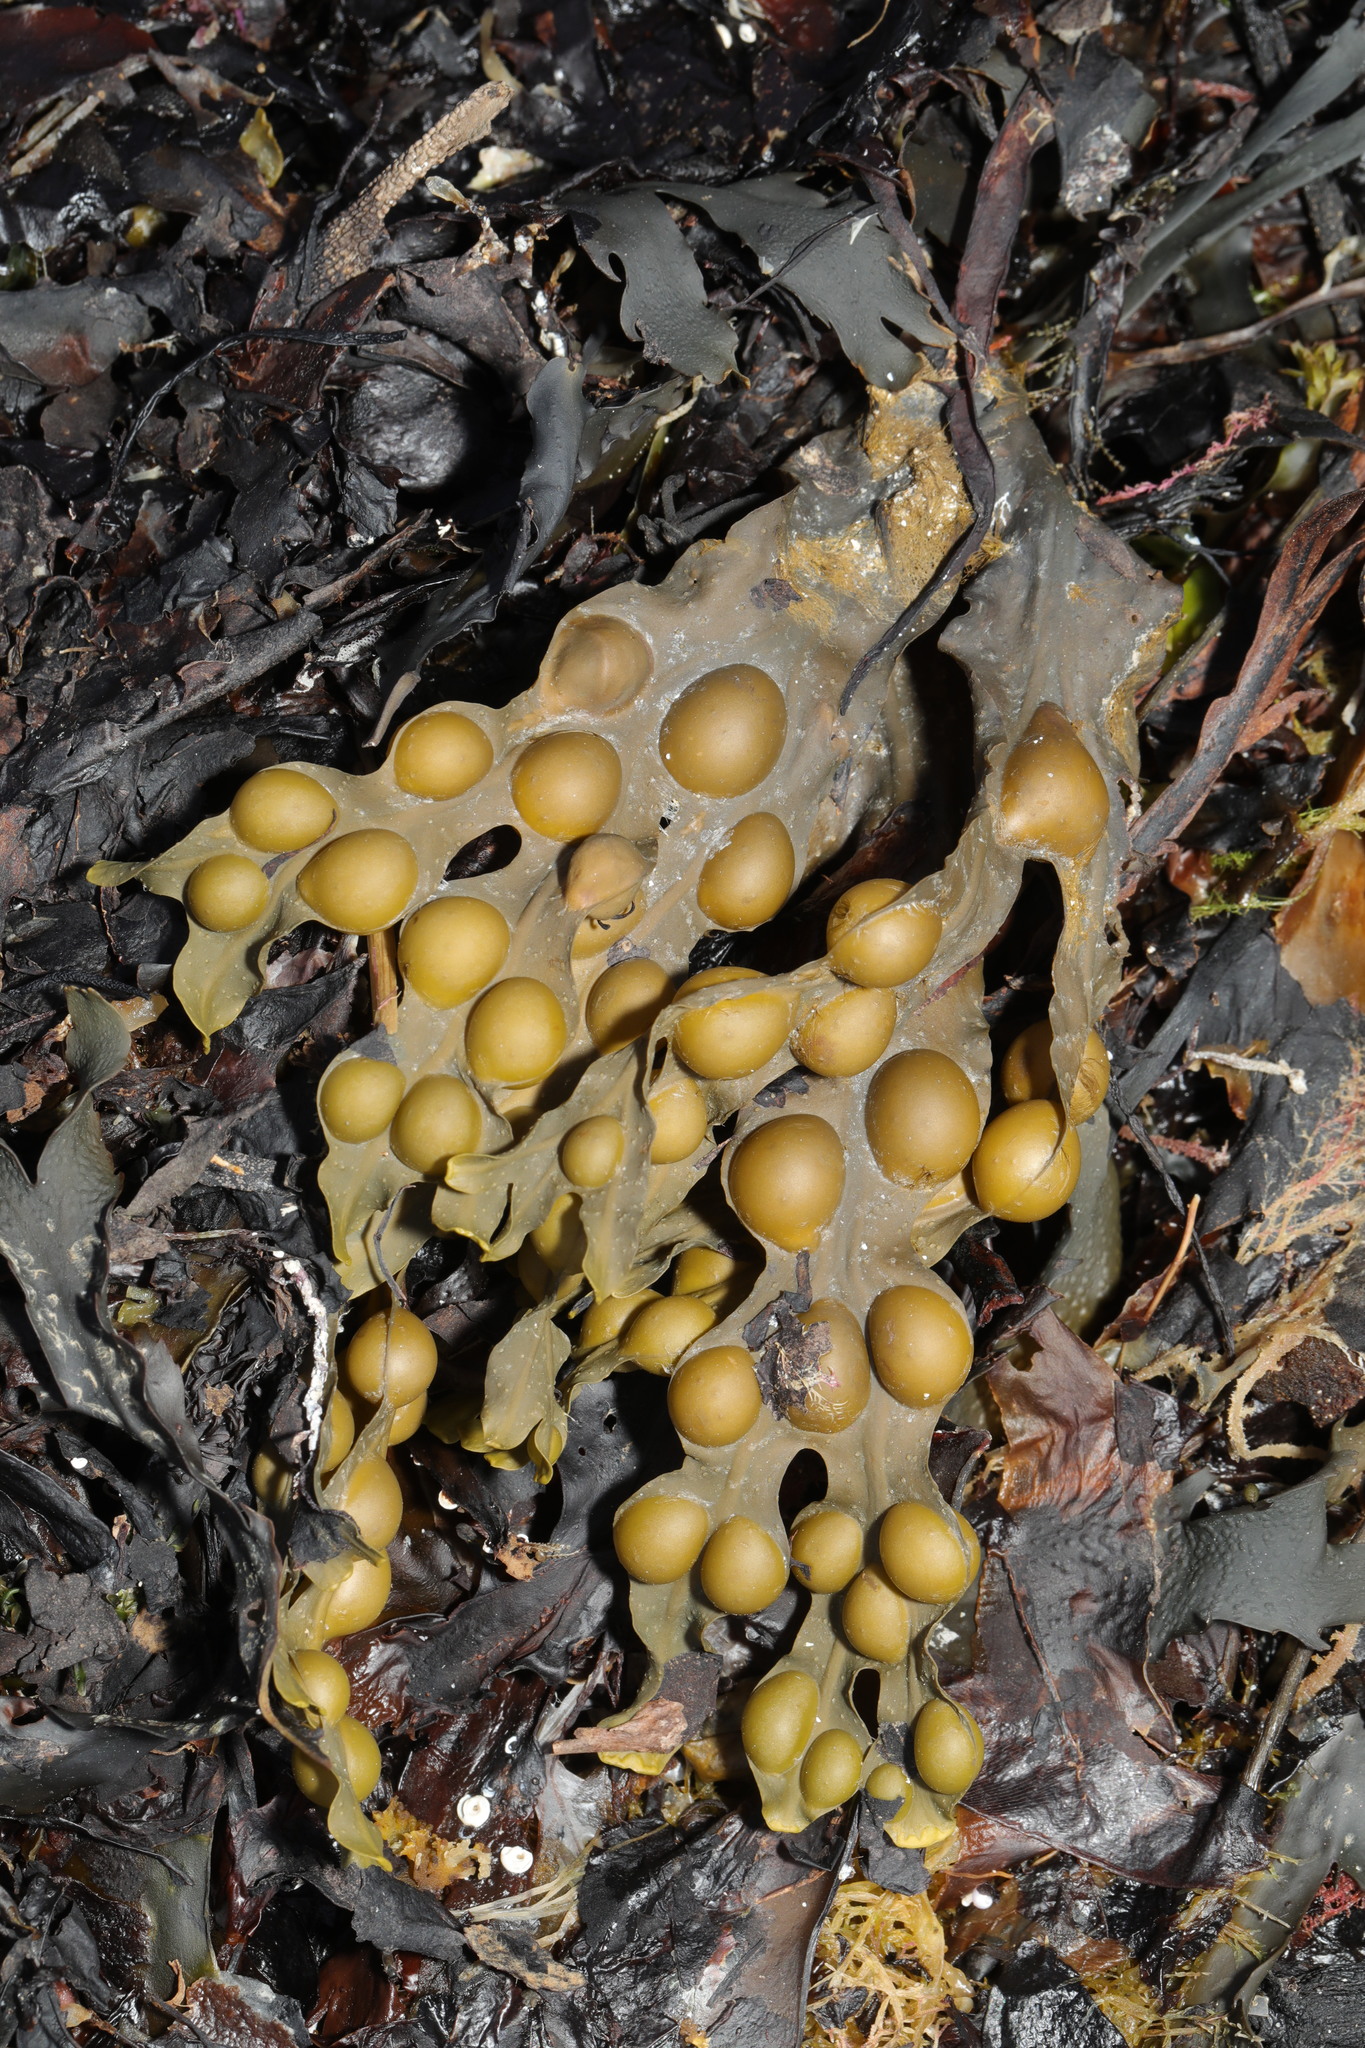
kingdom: Chromista
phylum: Ochrophyta
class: Phaeophyceae
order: Fucales
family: Fucaceae
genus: Fucus
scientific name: Fucus vesiculosus
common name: Bladder wrack
